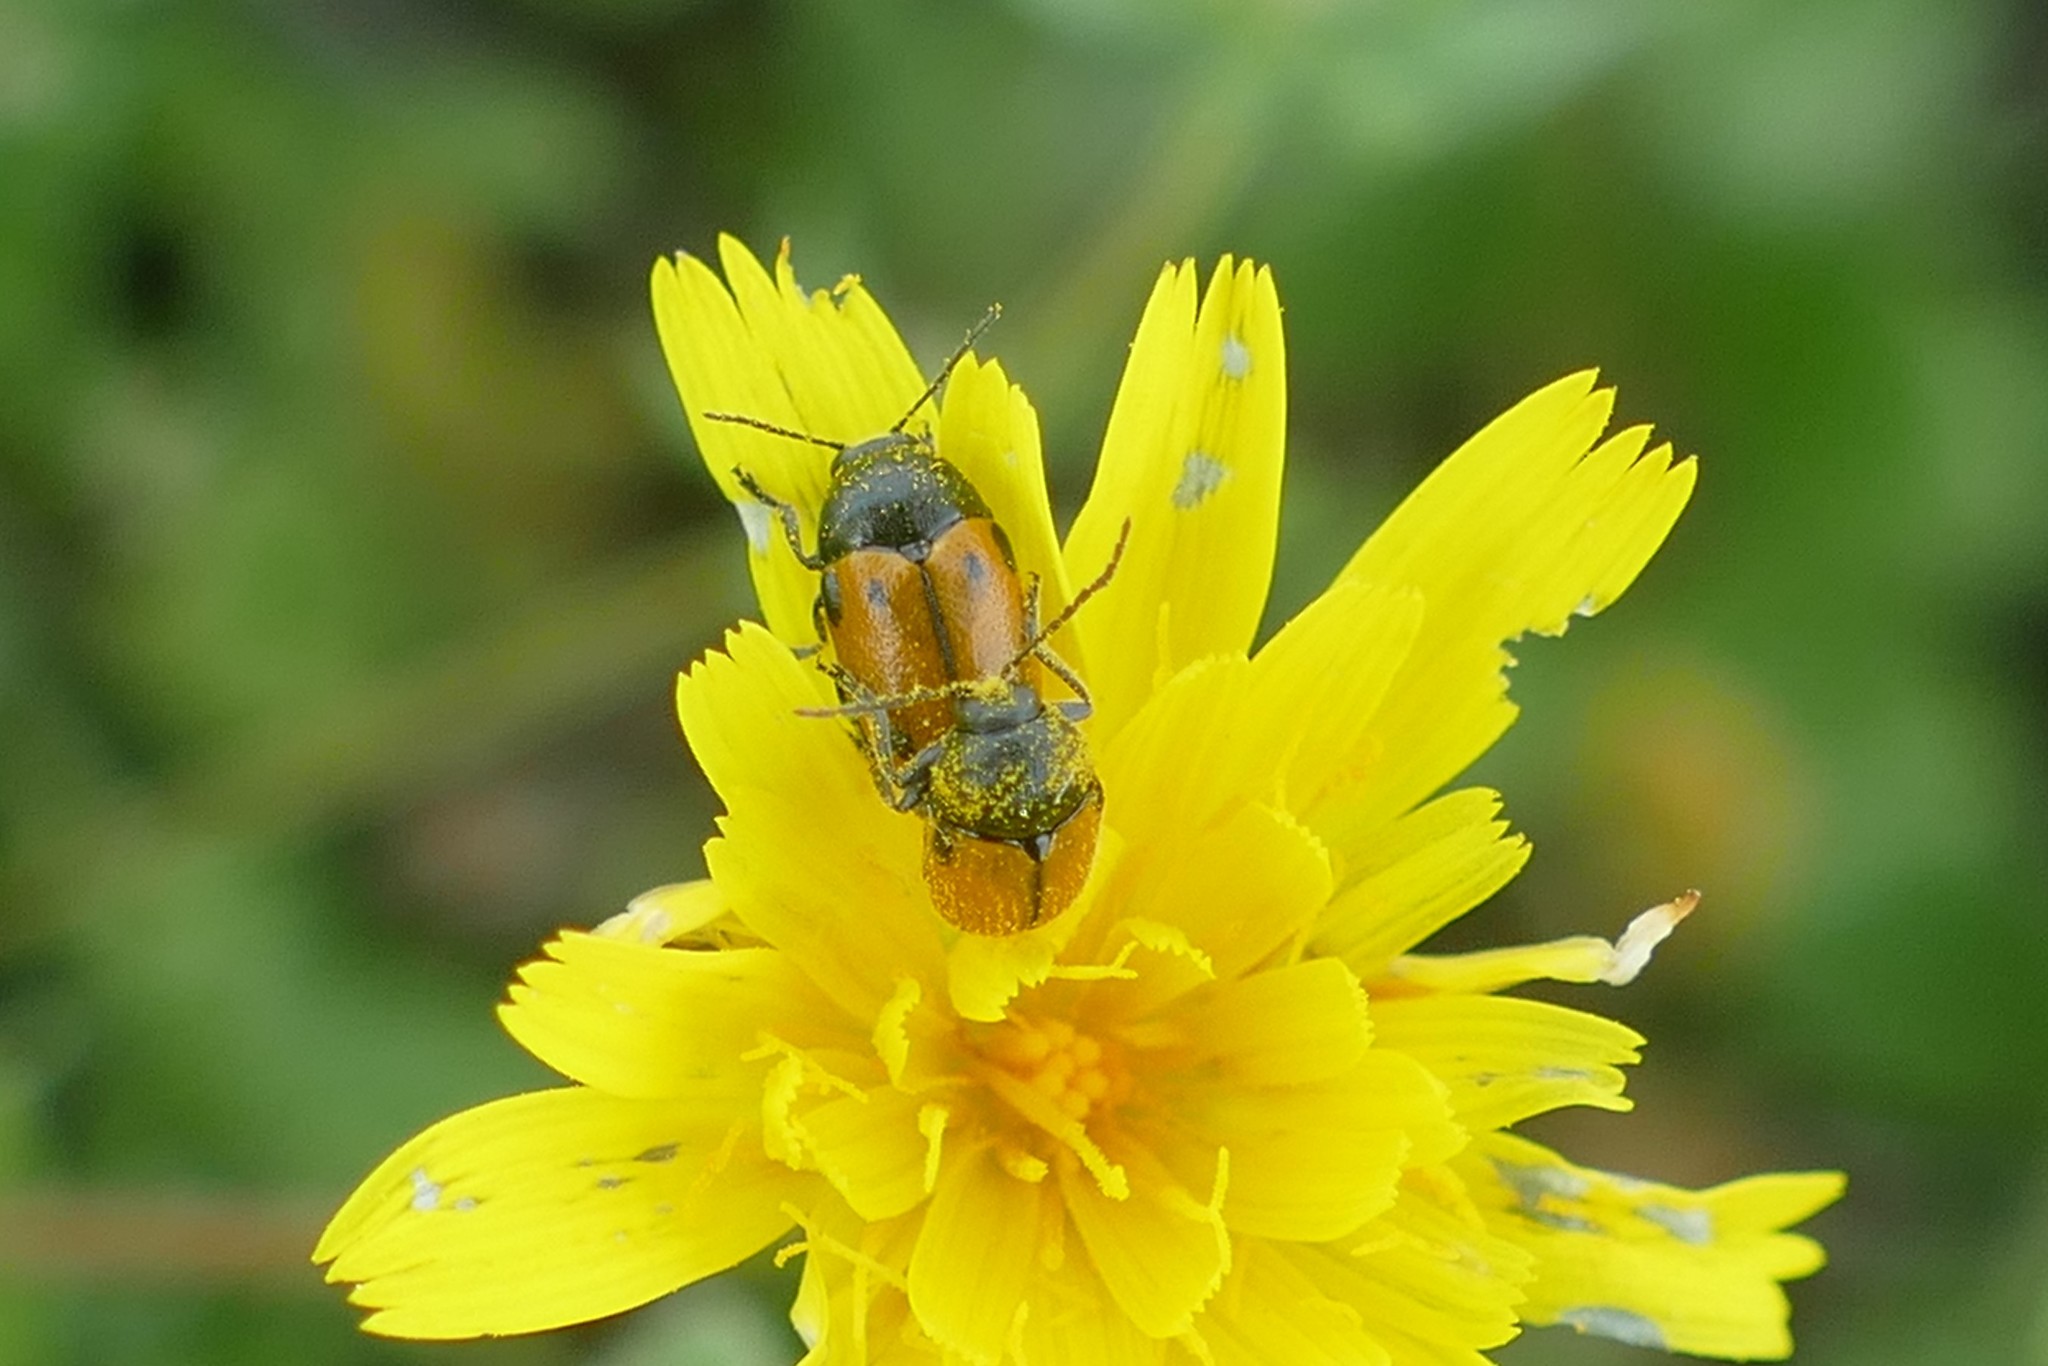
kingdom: Animalia
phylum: Arthropoda
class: Insecta
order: Coleoptera
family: Chrysomelidae
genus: Cryptocephalus
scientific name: Cryptocephalus rugicollis
